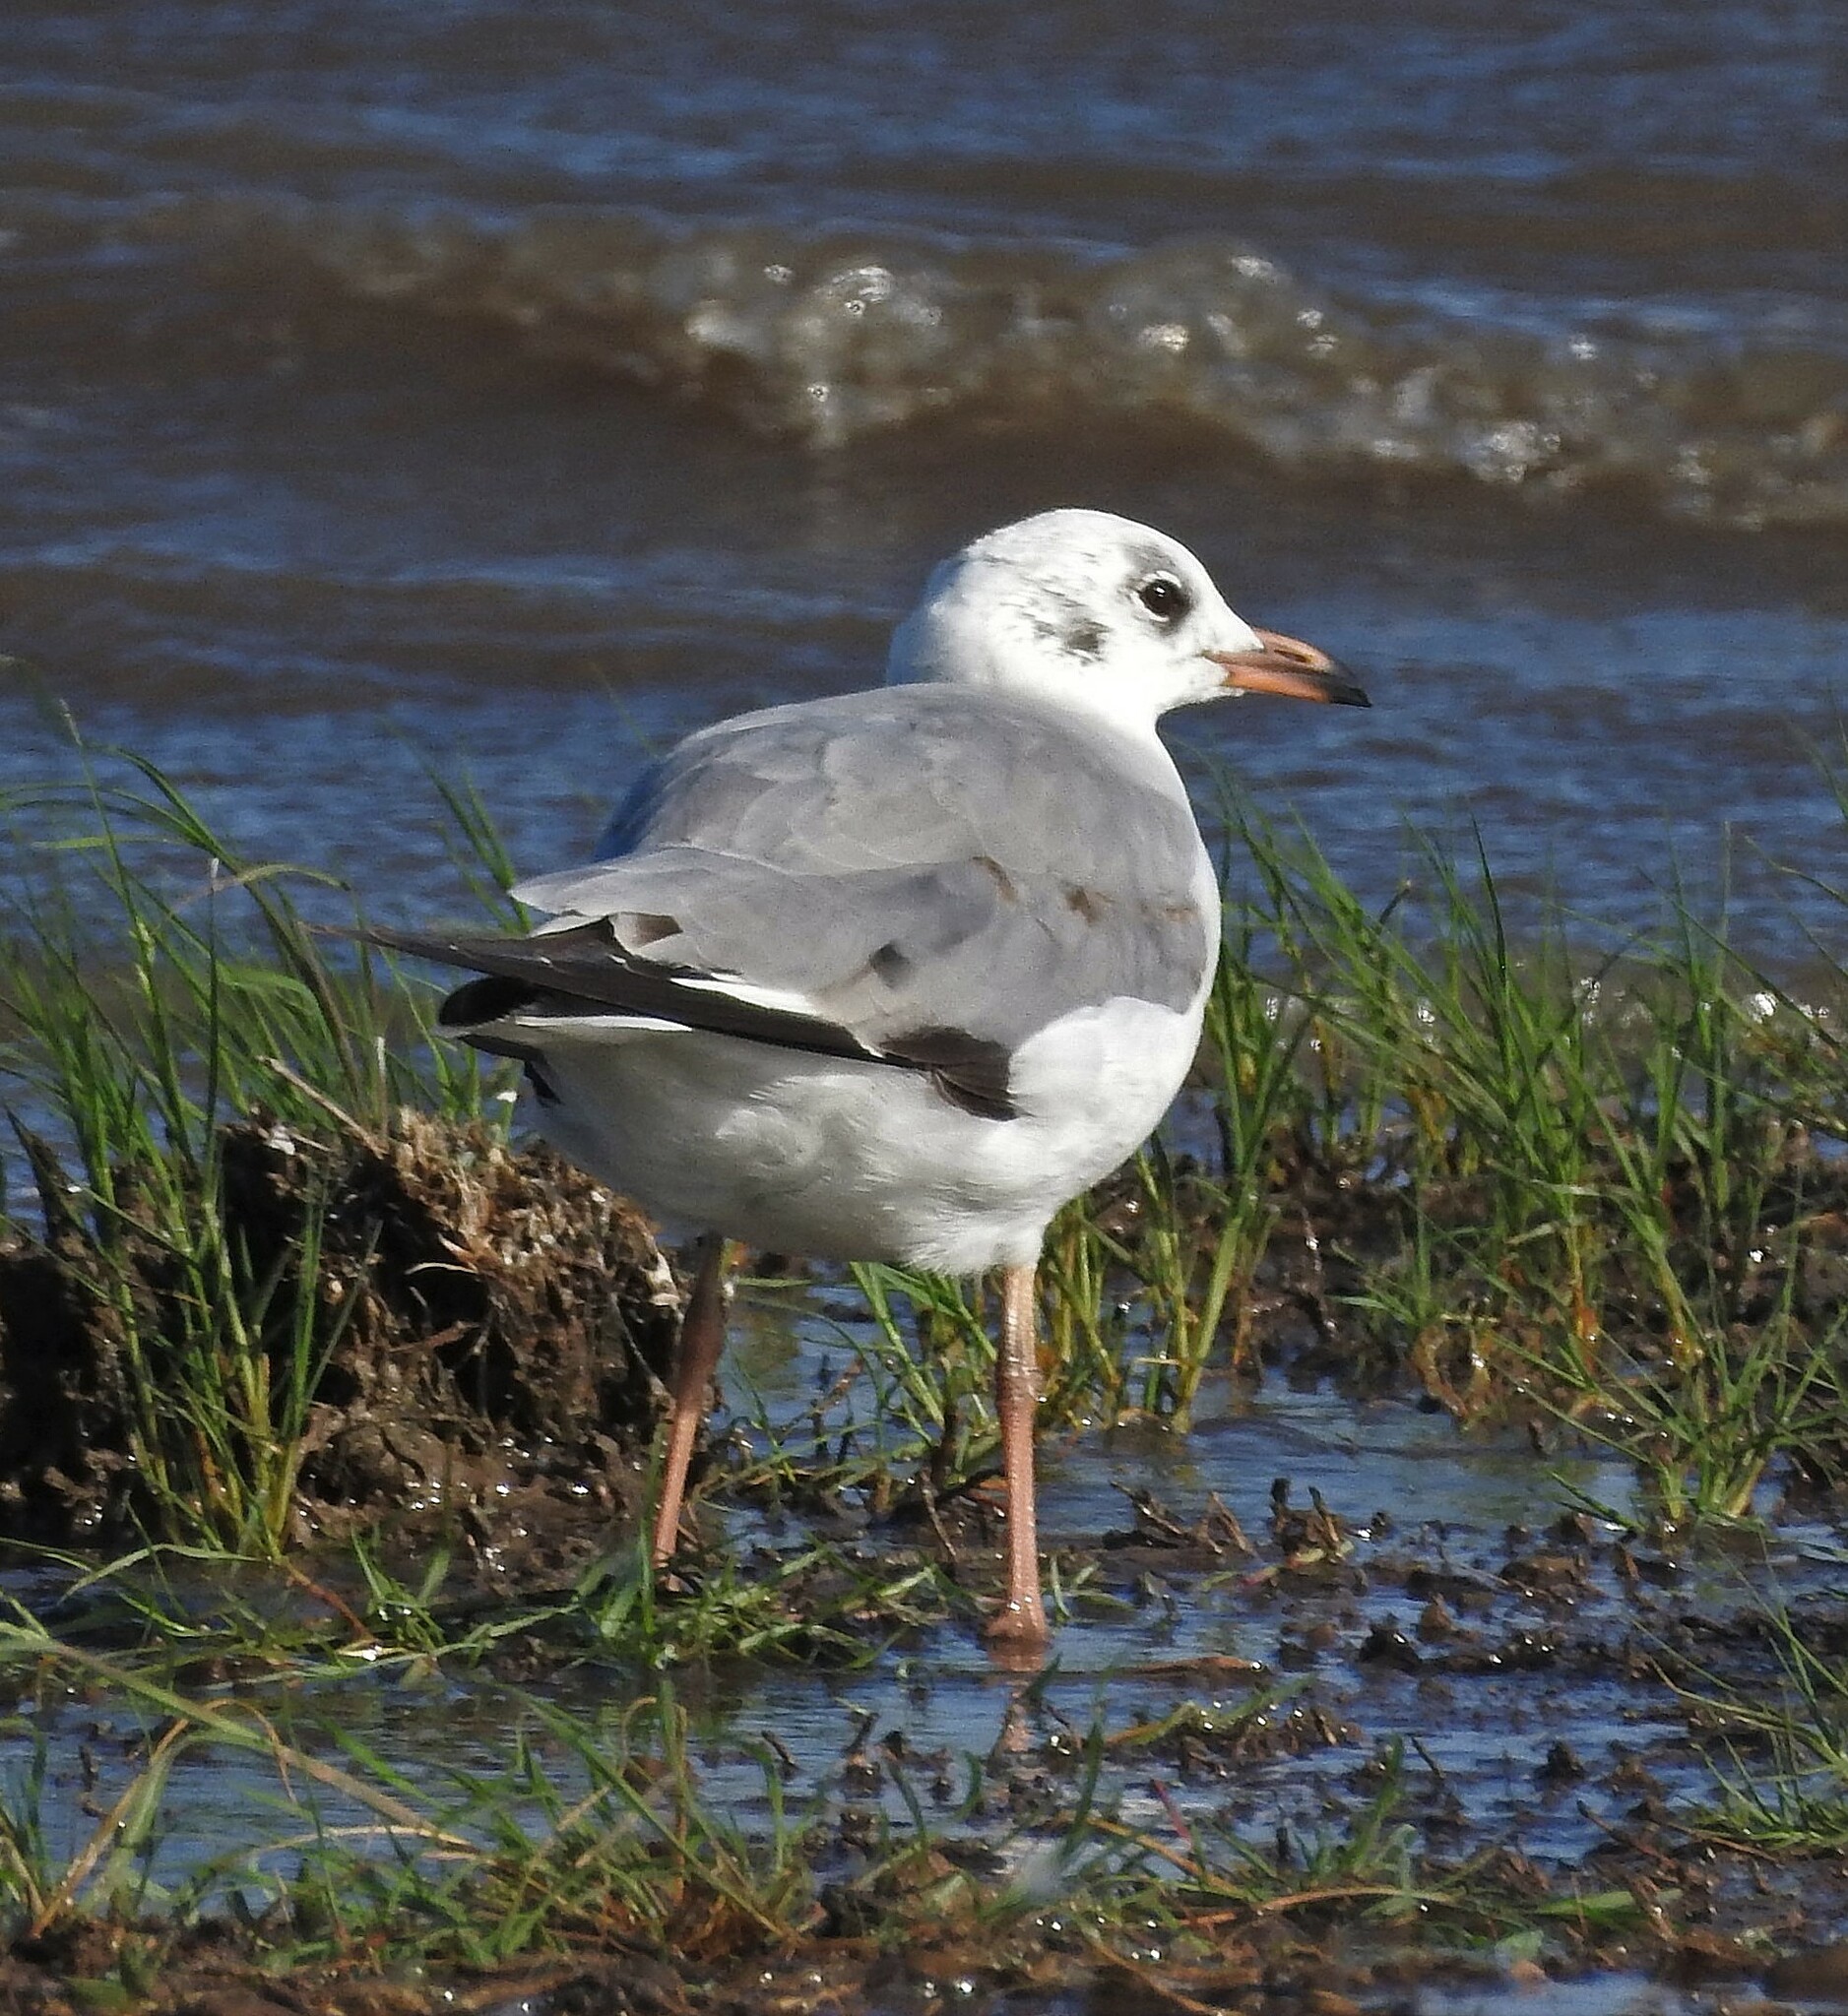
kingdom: Animalia
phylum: Chordata
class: Aves
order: Charadriiformes
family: Laridae
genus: Chroicocephalus
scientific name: Chroicocephalus maculipennis
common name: Brown-hooded gull
